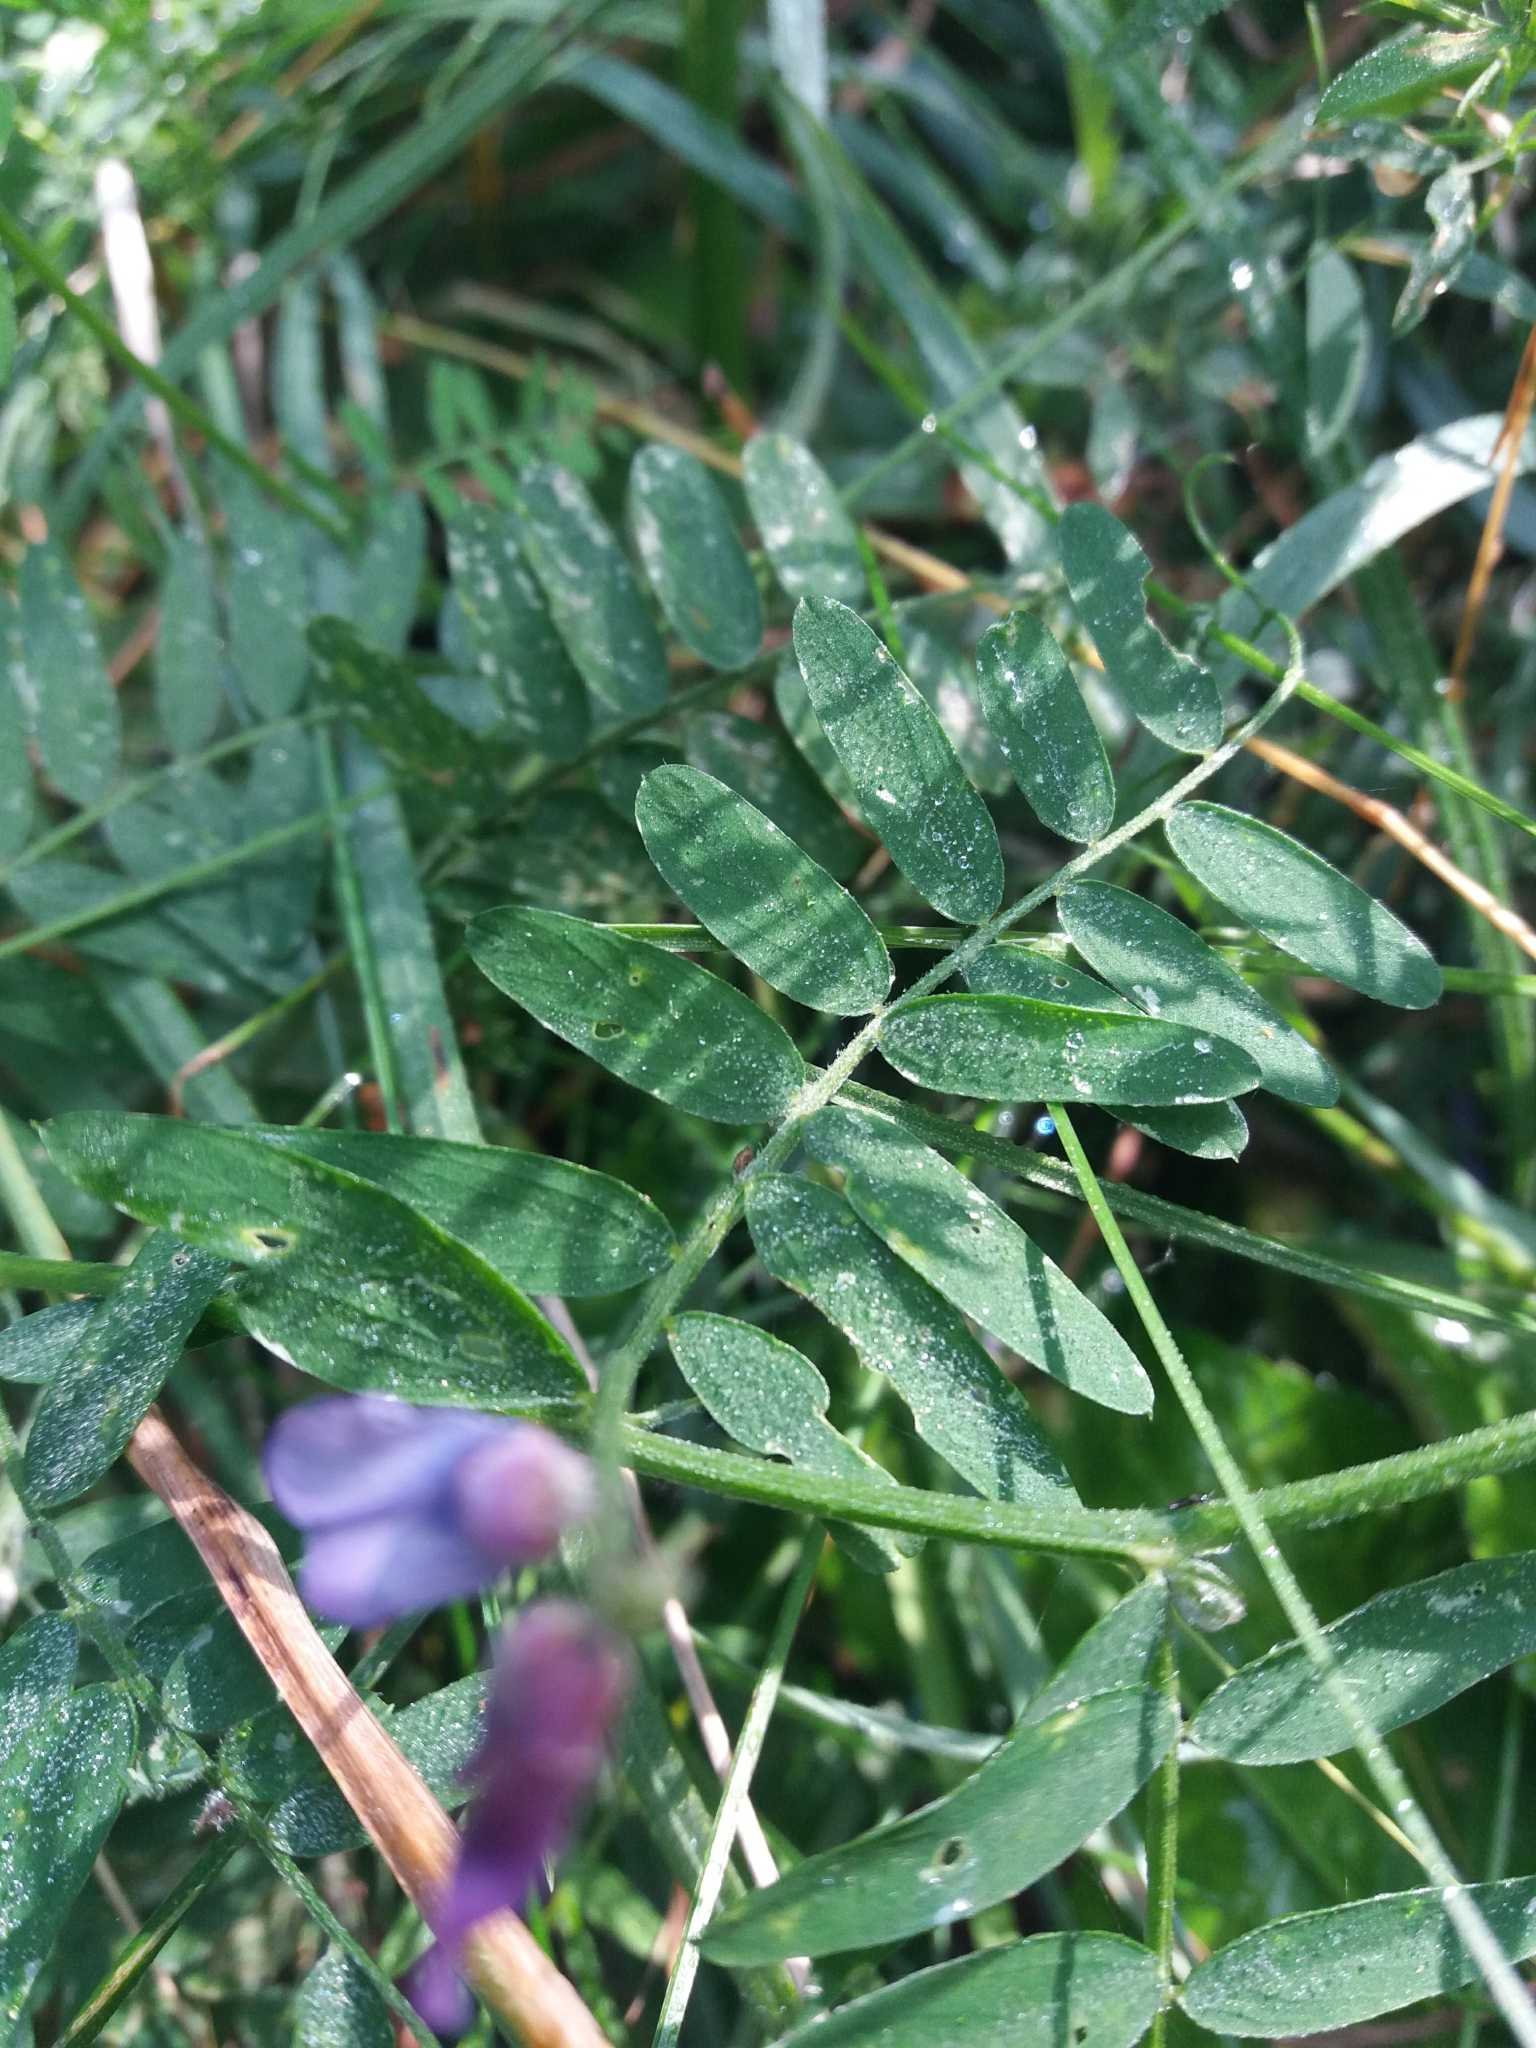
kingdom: Plantae
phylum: Tracheophyta
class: Magnoliopsida
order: Fabales
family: Fabaceae
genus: Vicia
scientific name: Vicia cracca
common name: Bird vetch
